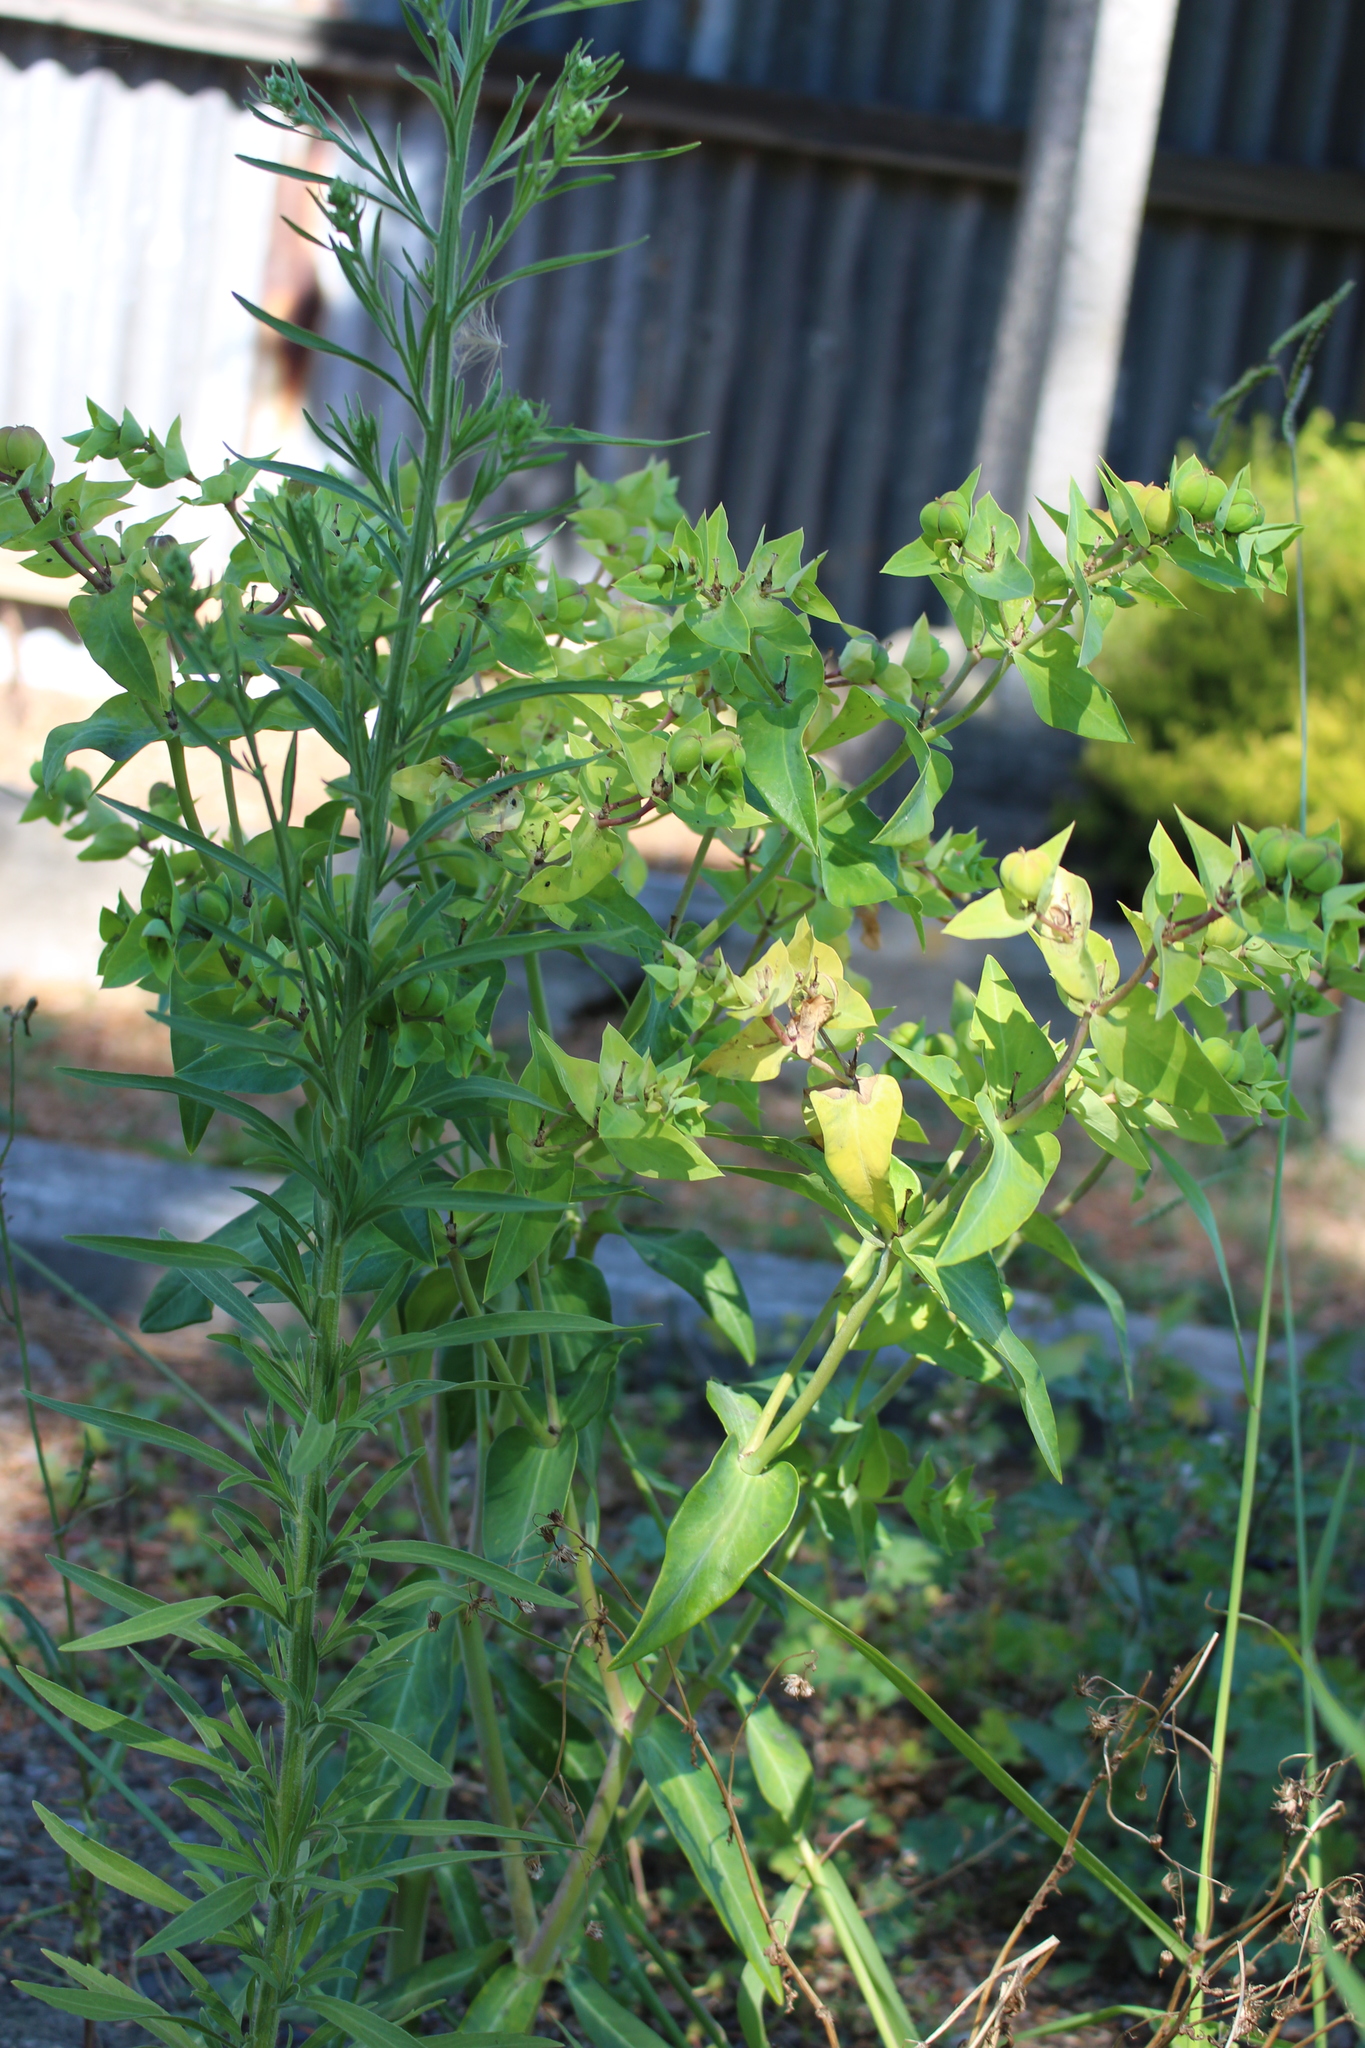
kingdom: Plantae
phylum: Tracheophyta
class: Magnoliopsida
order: Malpighiales
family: Euphorbiaceae
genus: Euphorbia
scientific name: Euphorbia lathyris
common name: Caper spurge
